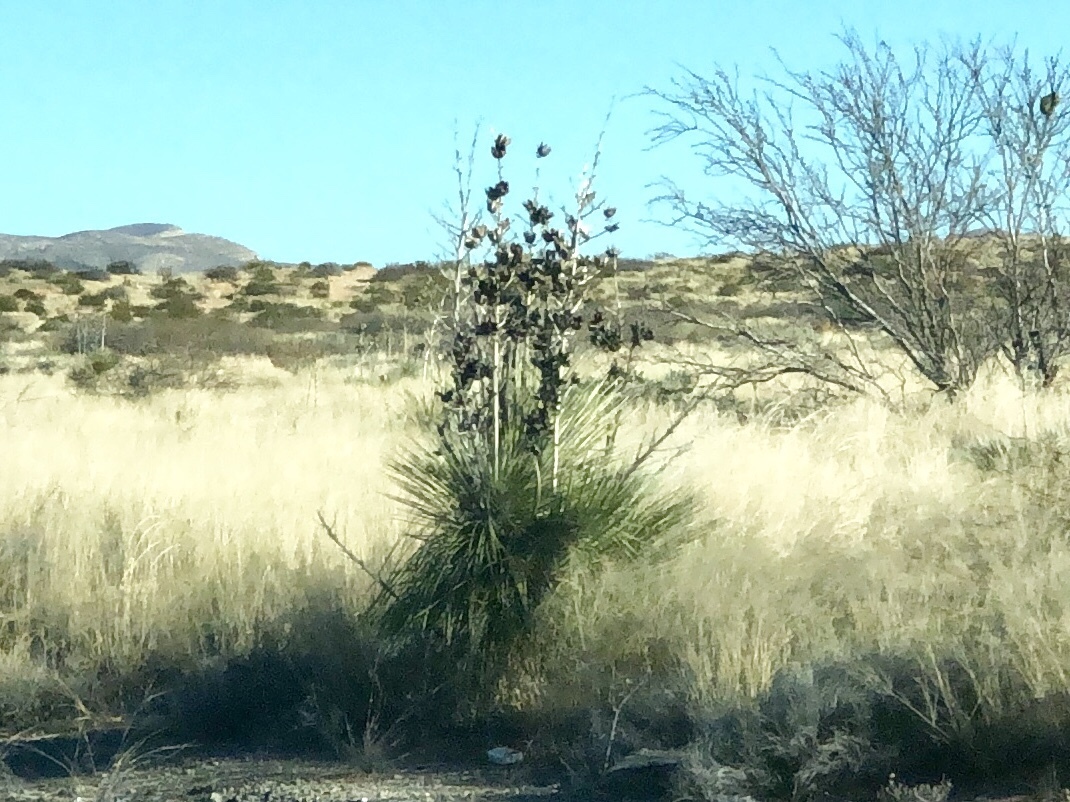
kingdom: Plantae
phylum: Tracheophyta
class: Liliopsida
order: Asparagales
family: Asparagaceae
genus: Yucca
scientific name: Yucca elata
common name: Palmella
